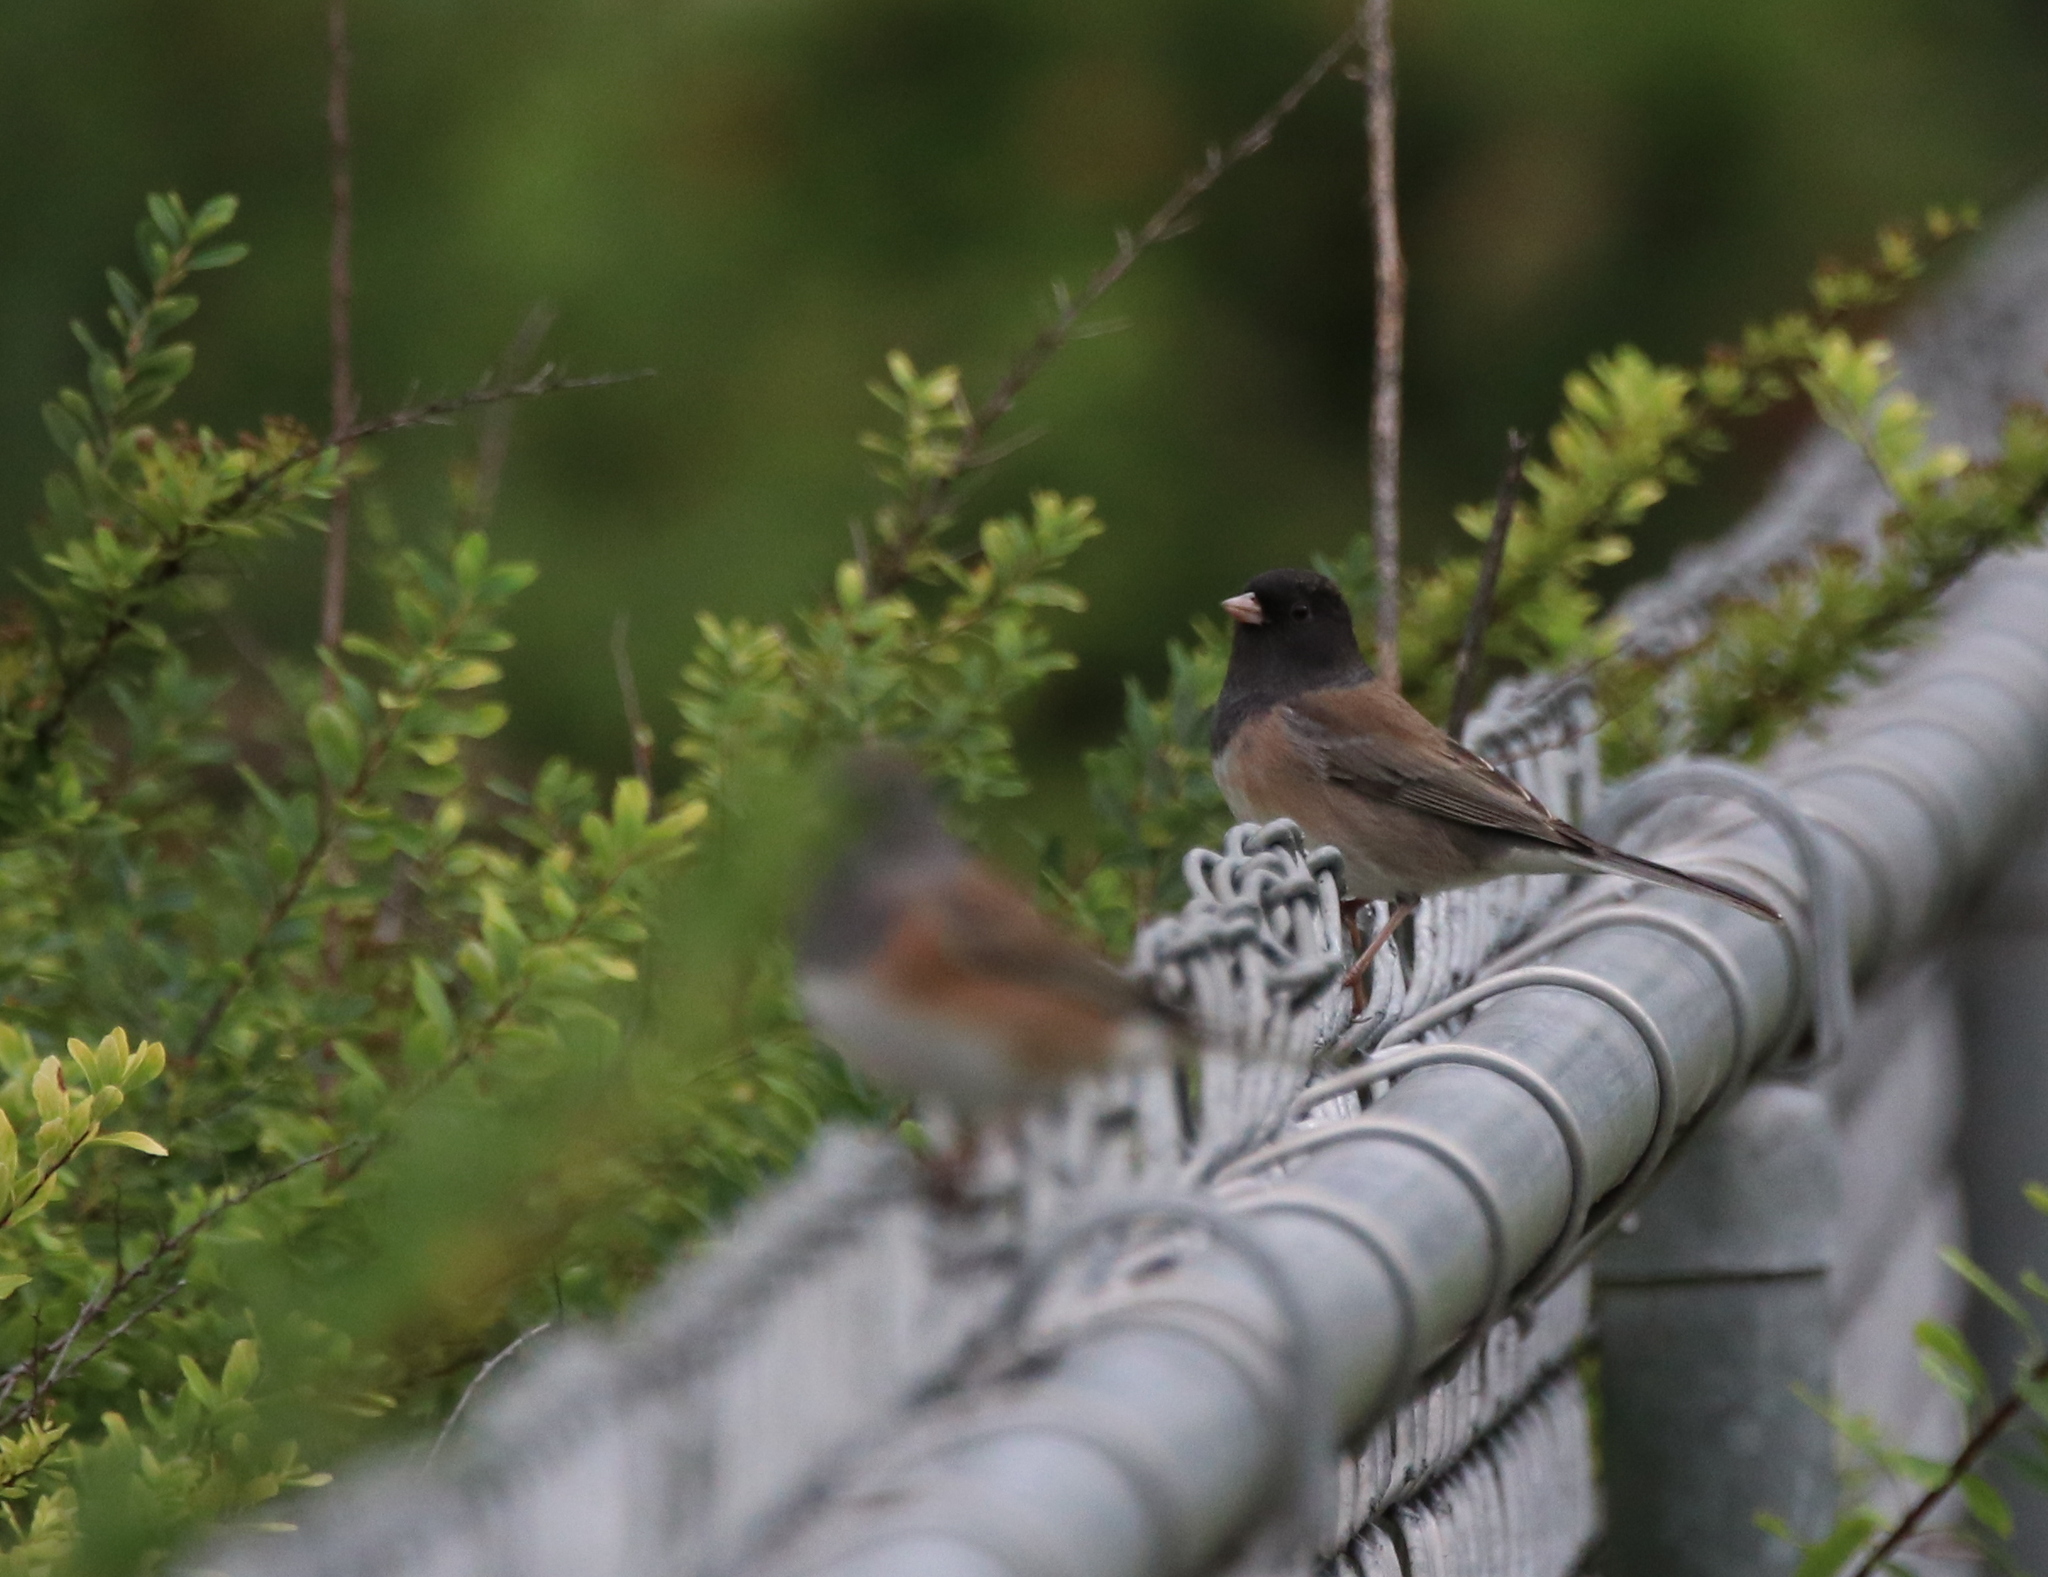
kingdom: Animalia
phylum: Chordata
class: Aves
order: Passeriformes
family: Passerellidae
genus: Junco
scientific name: Junco hyemalis
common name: Dark-eyed junco
